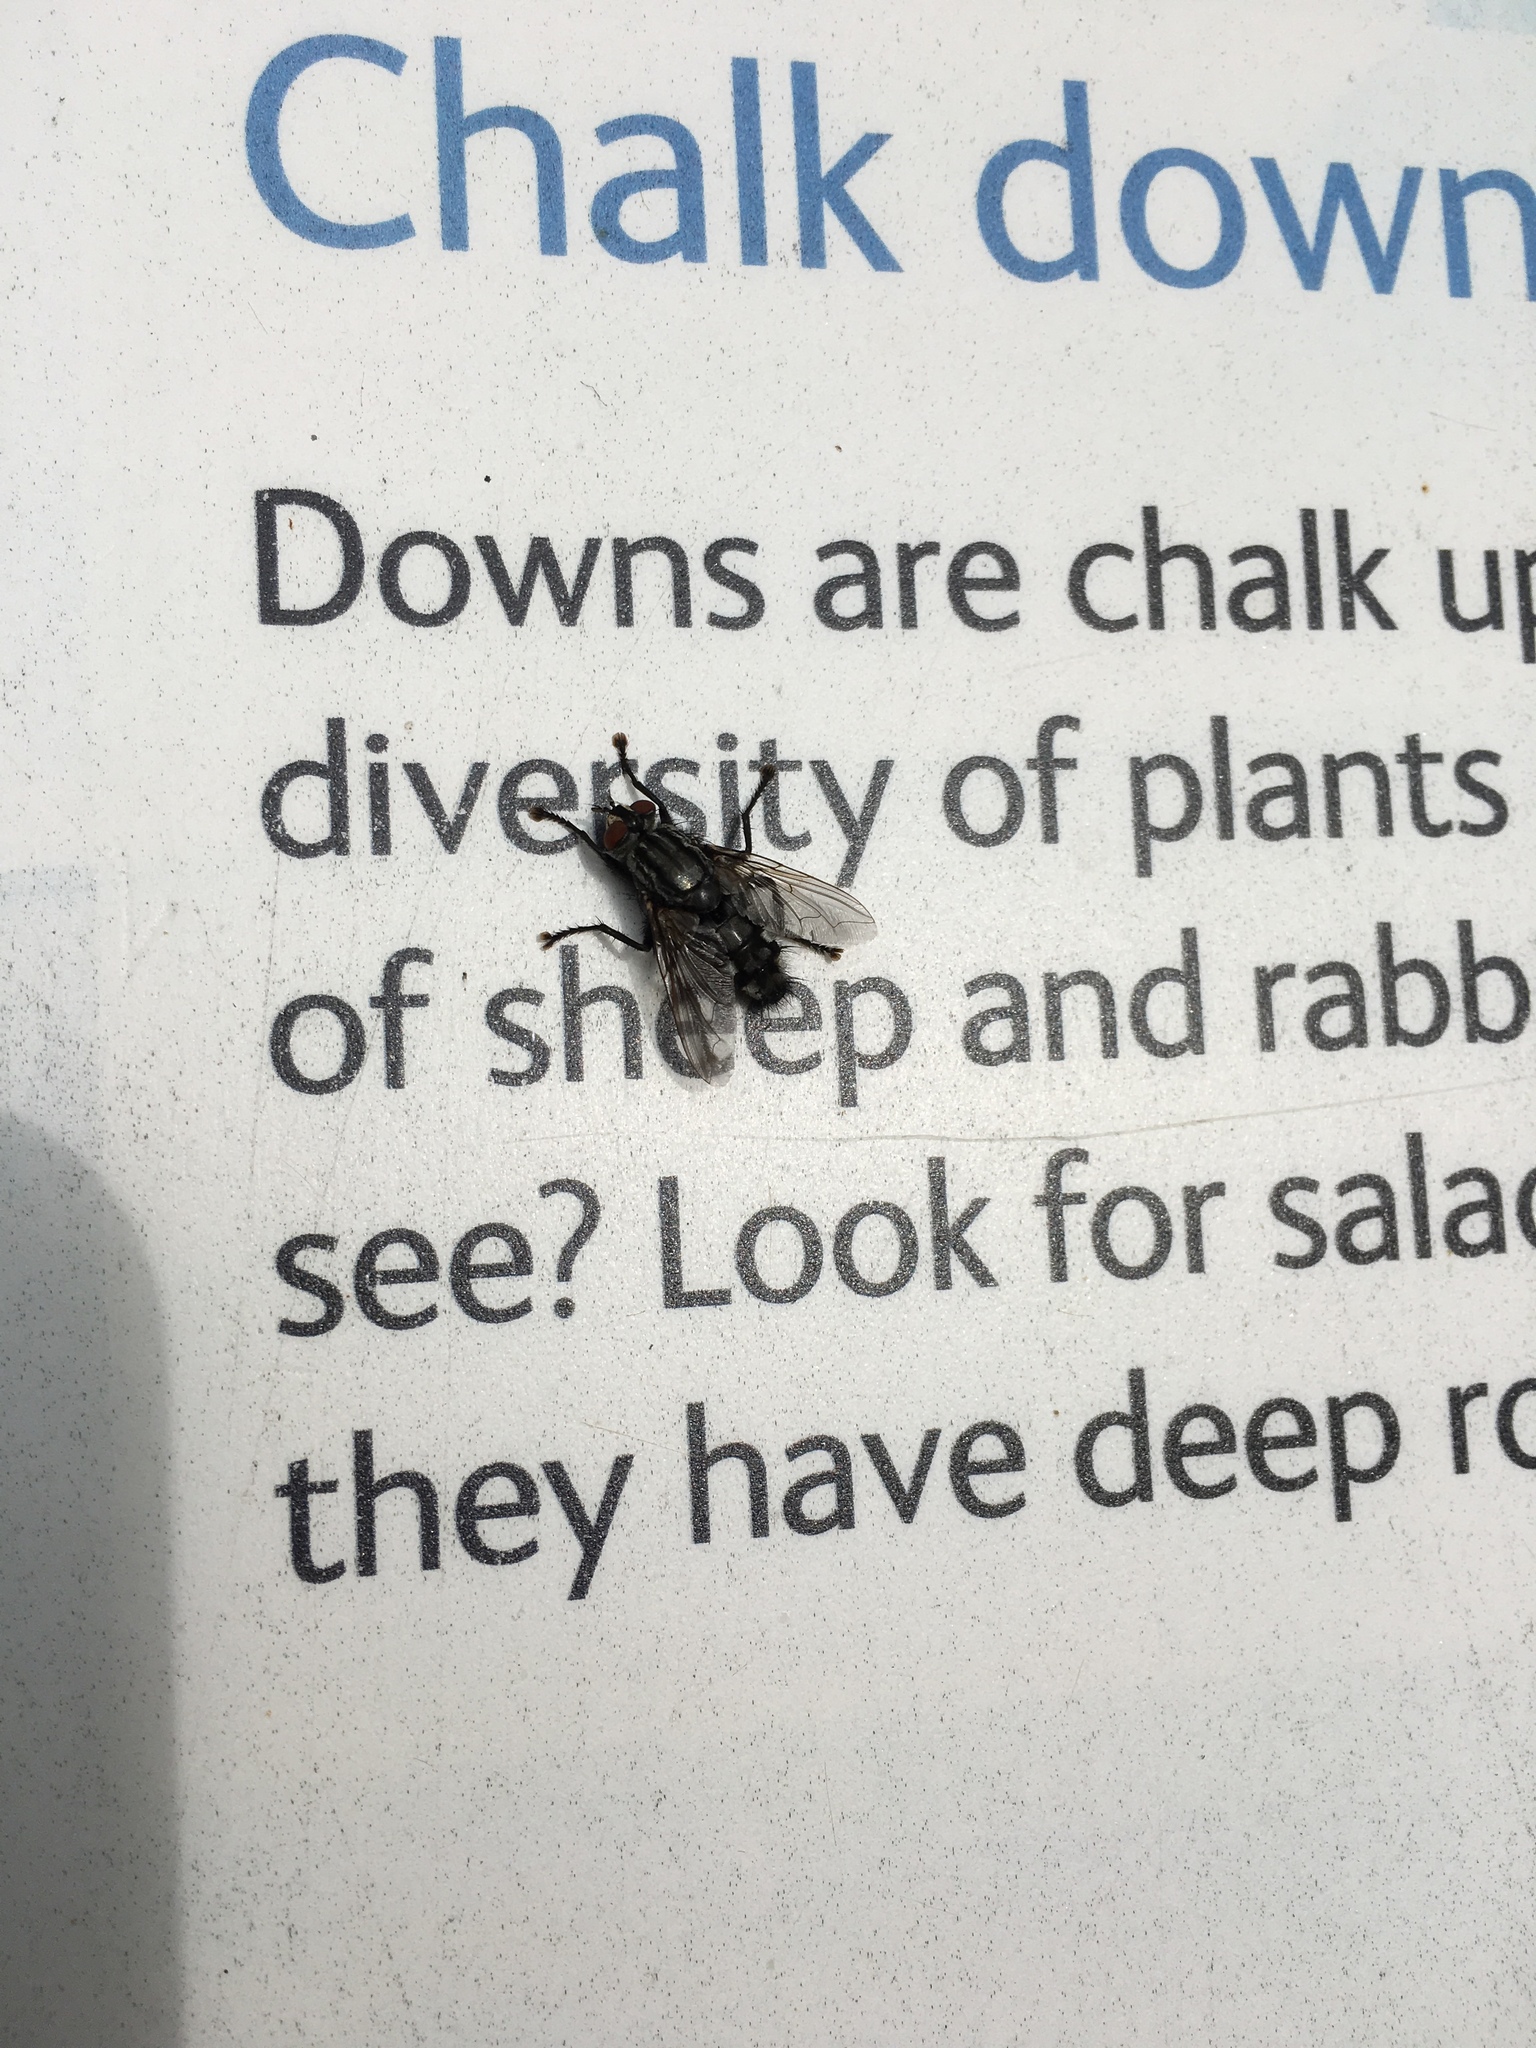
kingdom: Animalia
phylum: Arthropoda
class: Insecta
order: Diptera
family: Sarcophagidae
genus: Sarcophaga
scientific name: Sarcophaga
